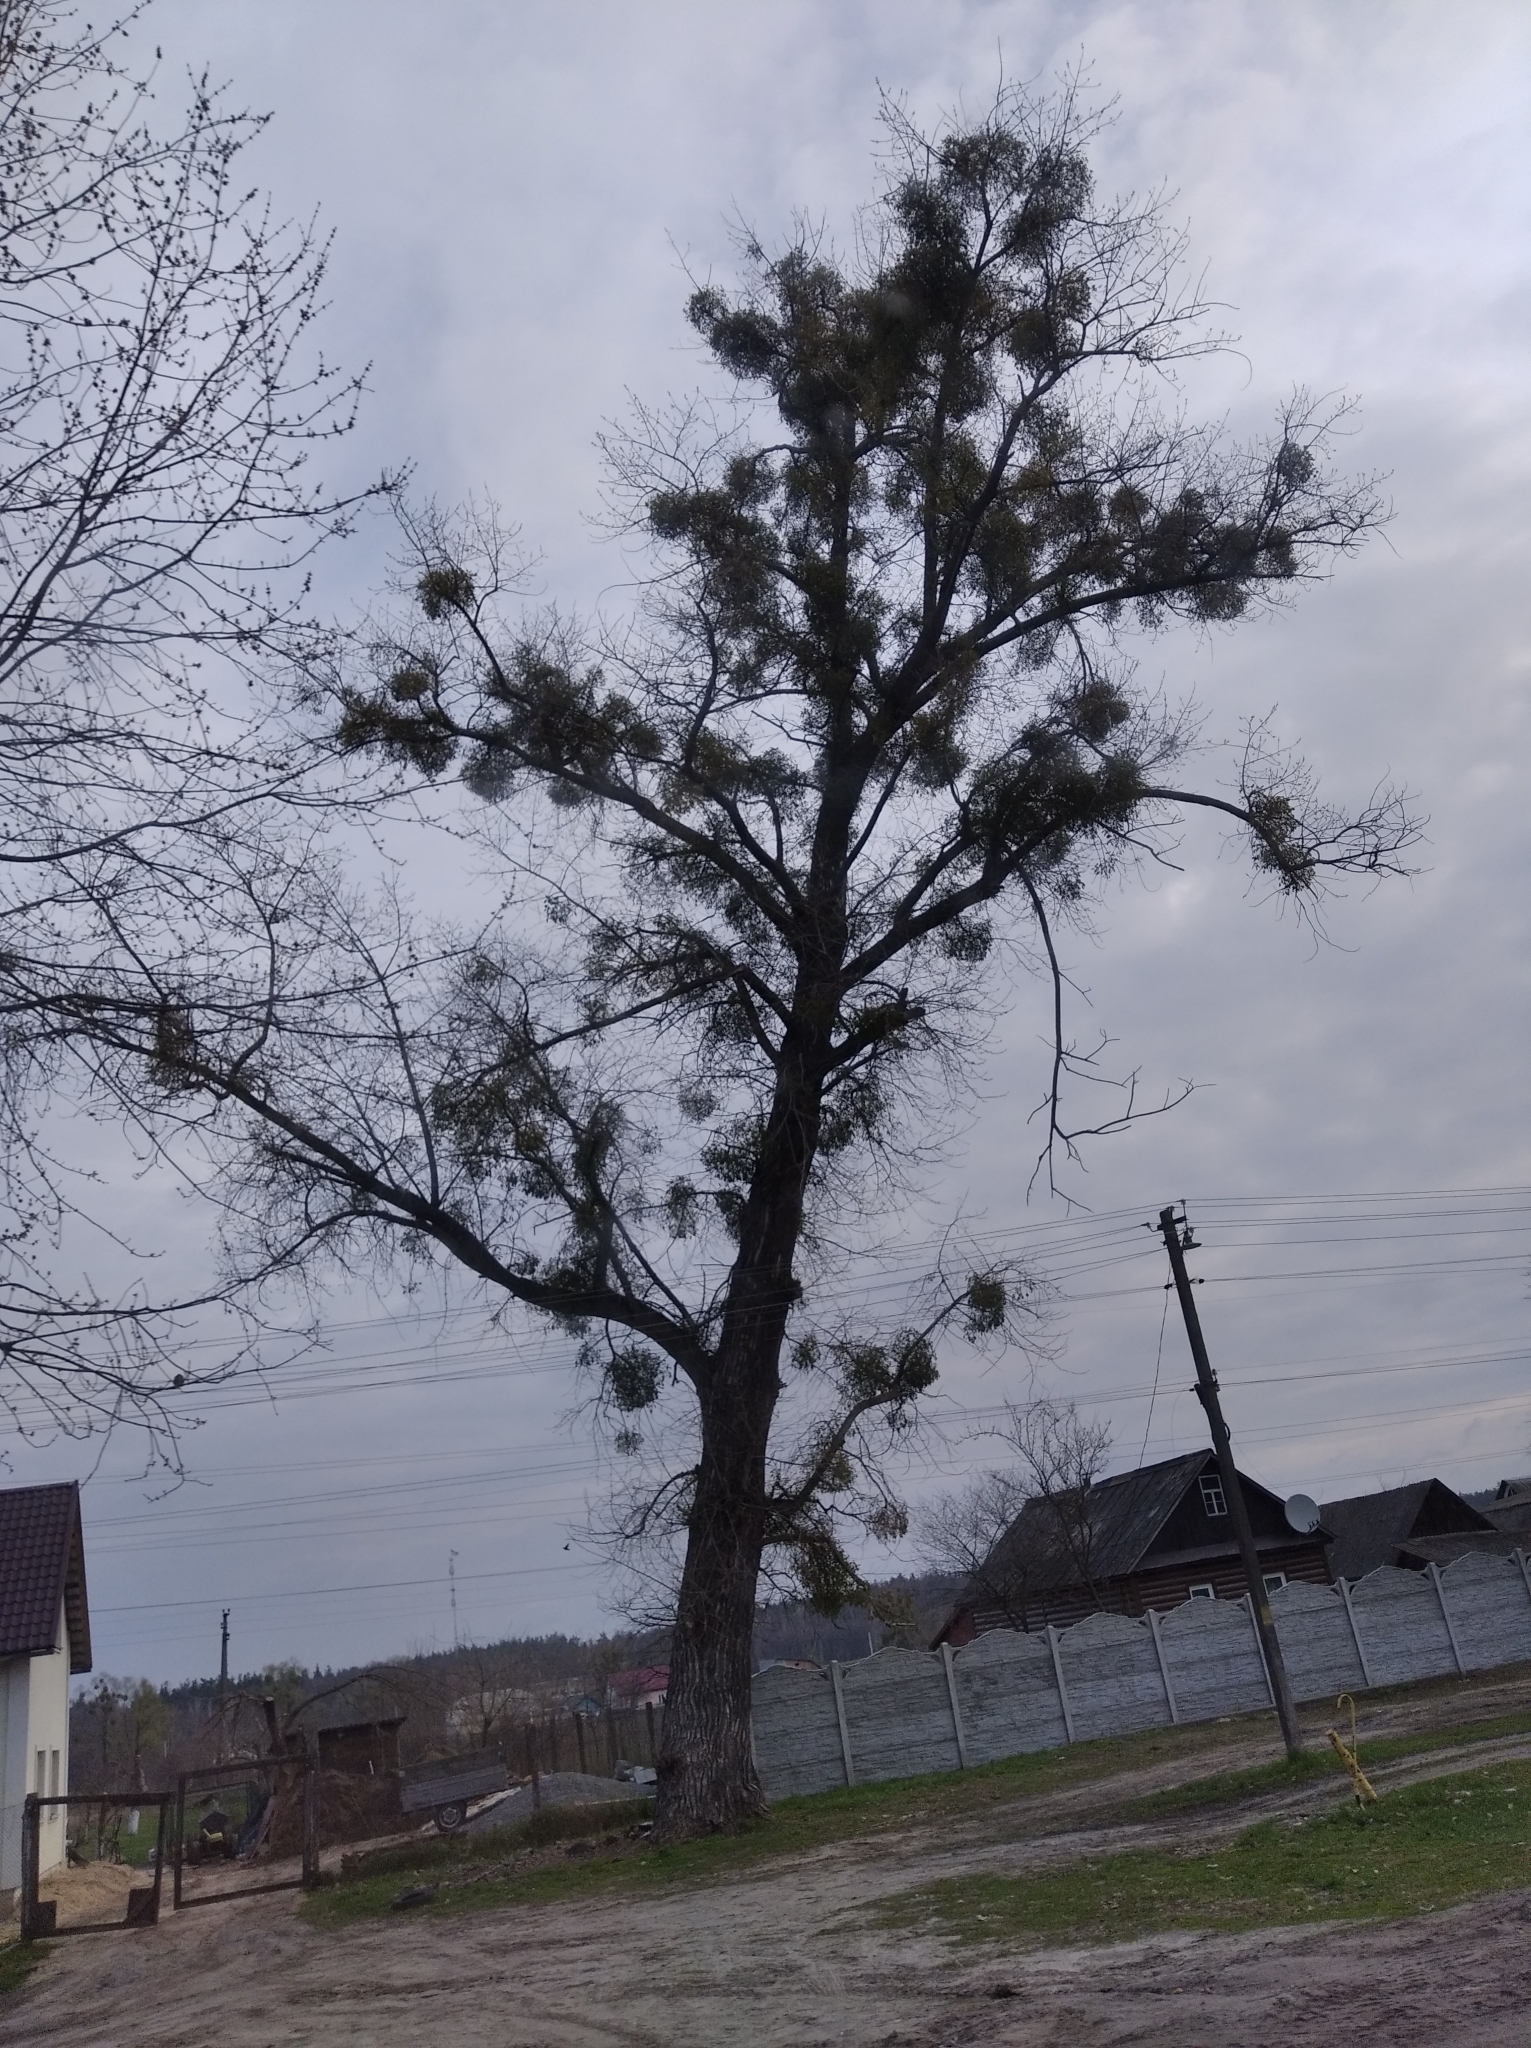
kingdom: Plantae
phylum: Tracheophyta
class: Magnoliopsida
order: Santalales
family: Viscaceae
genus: Viscum
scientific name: Viscum album
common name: Mistletoe
